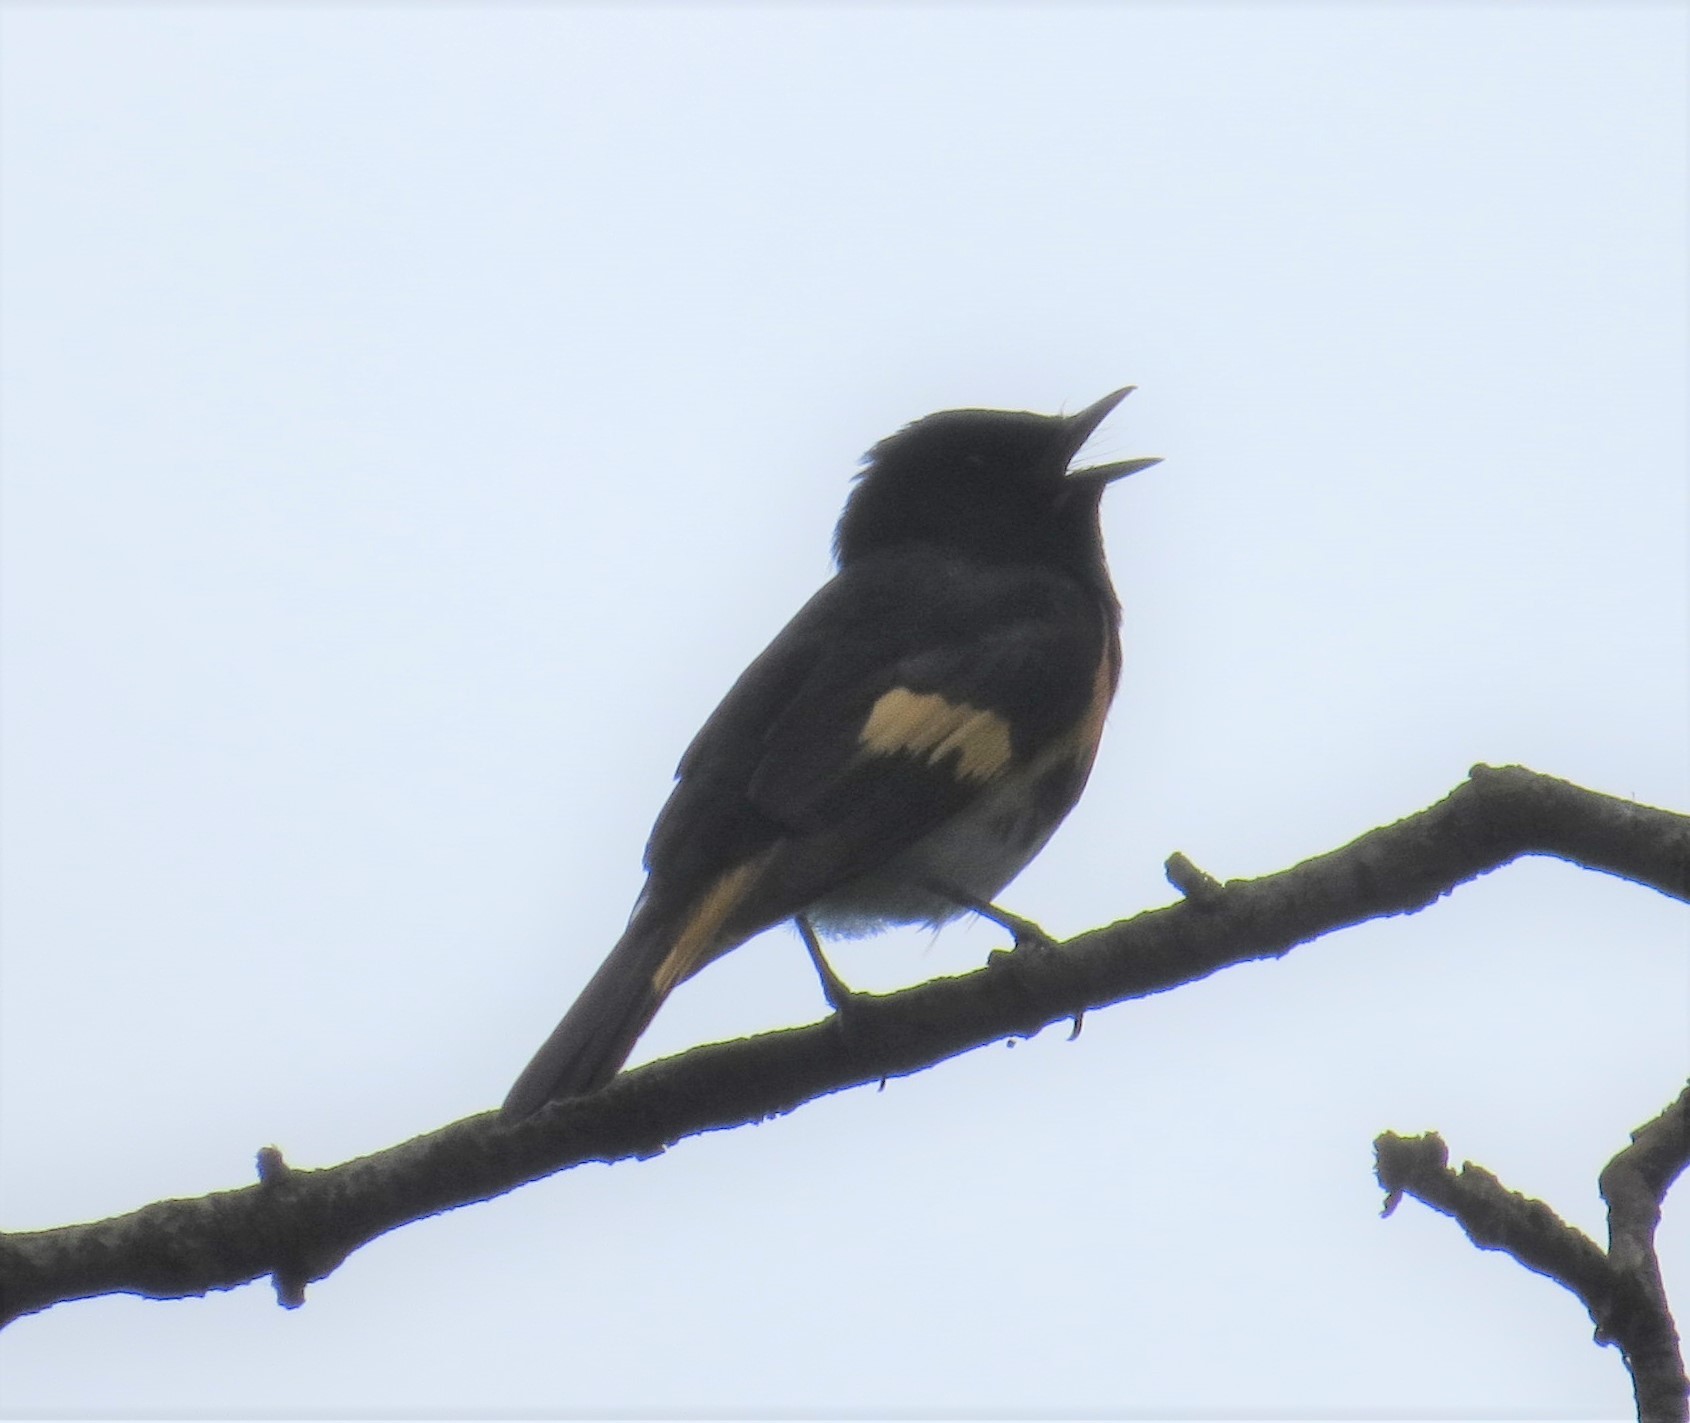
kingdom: Animalia
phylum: Chordata
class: Aves
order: Passeriformes
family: Parulidae
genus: Setophaga
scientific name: Setophaga ruticilla
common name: American redstart
